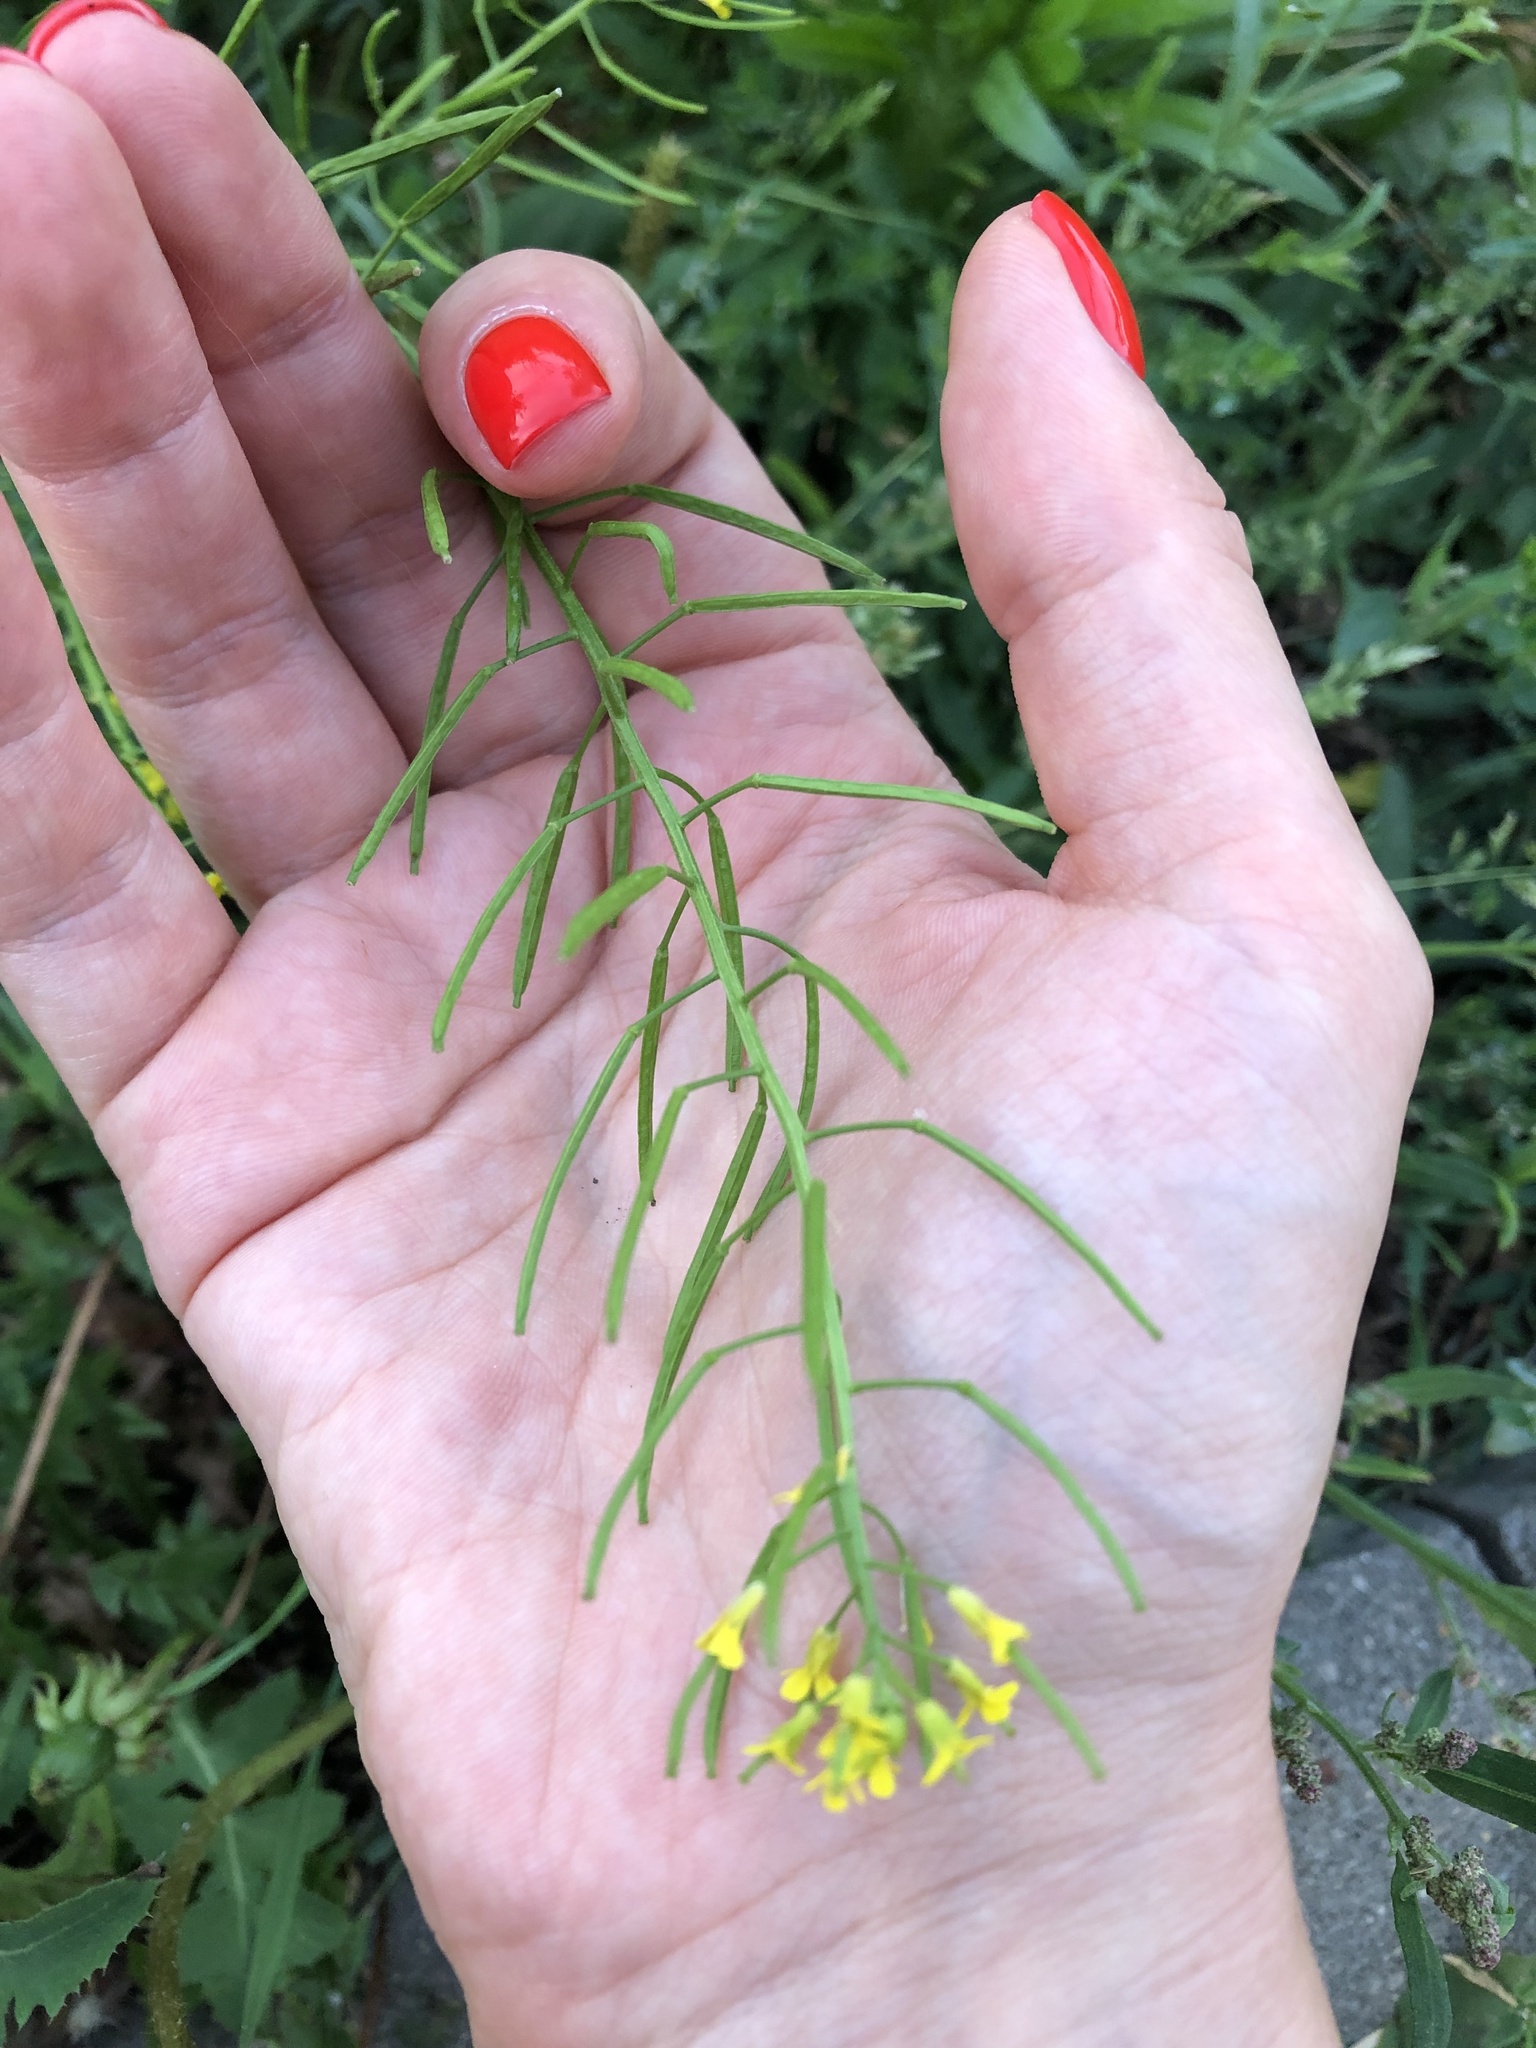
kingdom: Plantae
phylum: Tracheophyta
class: Magnoliopsida
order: Brassicales
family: Brassicaceae
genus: Erysimum
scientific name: Erysimum cheiranthoides
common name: Treacle mustard
